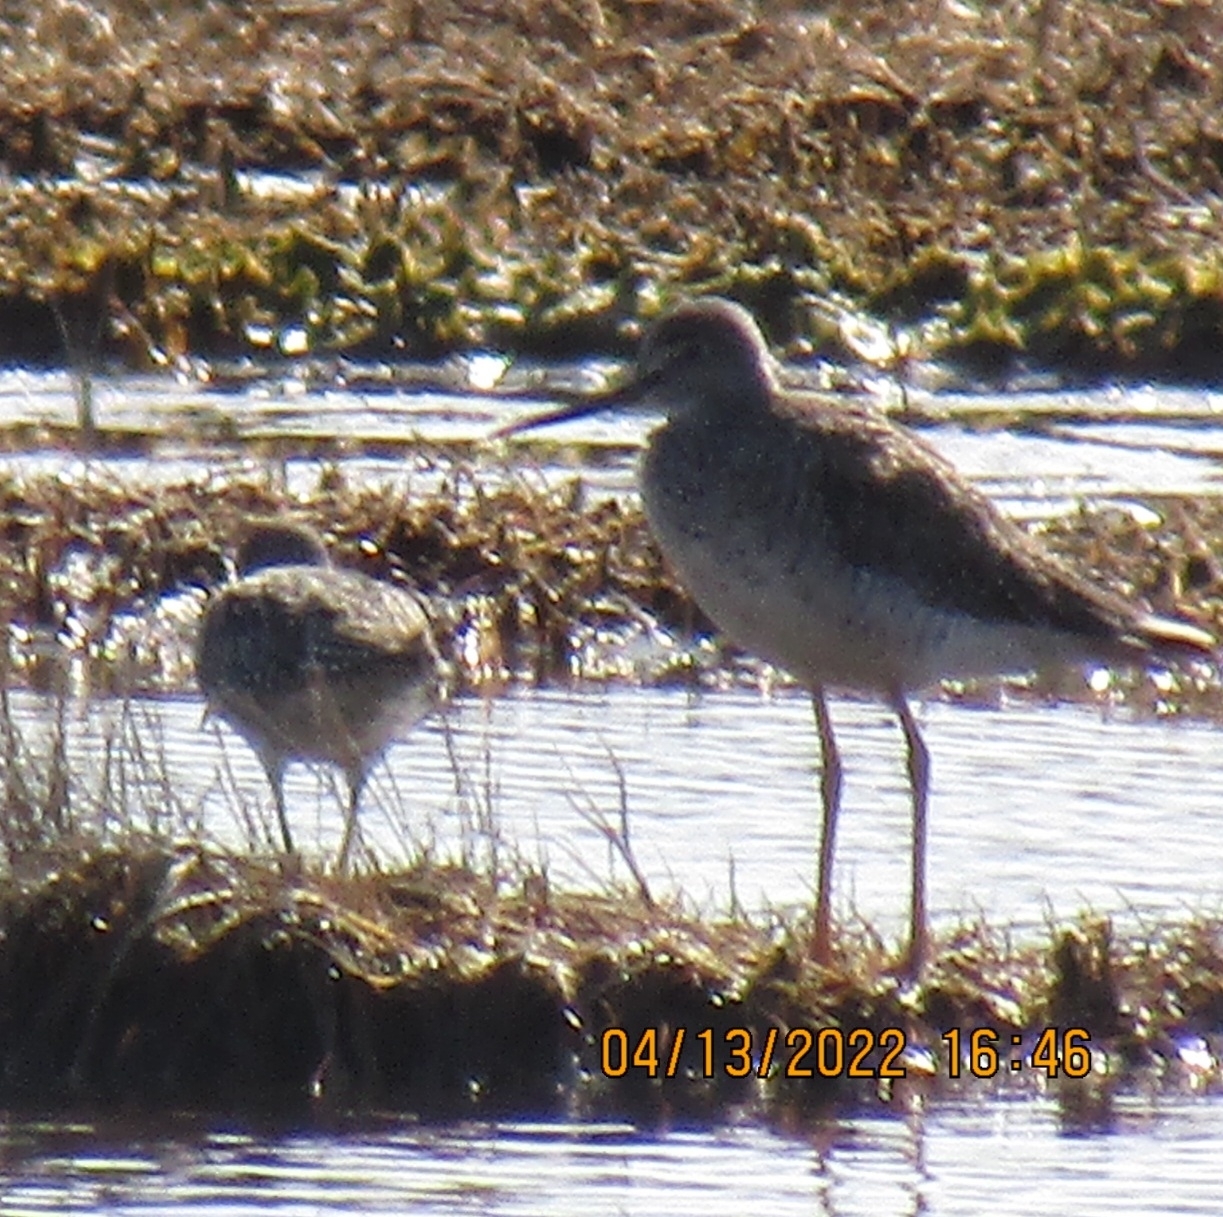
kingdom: Animalia
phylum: Chordata
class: Aves
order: Charadriiformes
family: Scolopacidae
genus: Tringa
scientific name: Tringa melanoleuca
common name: Greater yellowlegs
